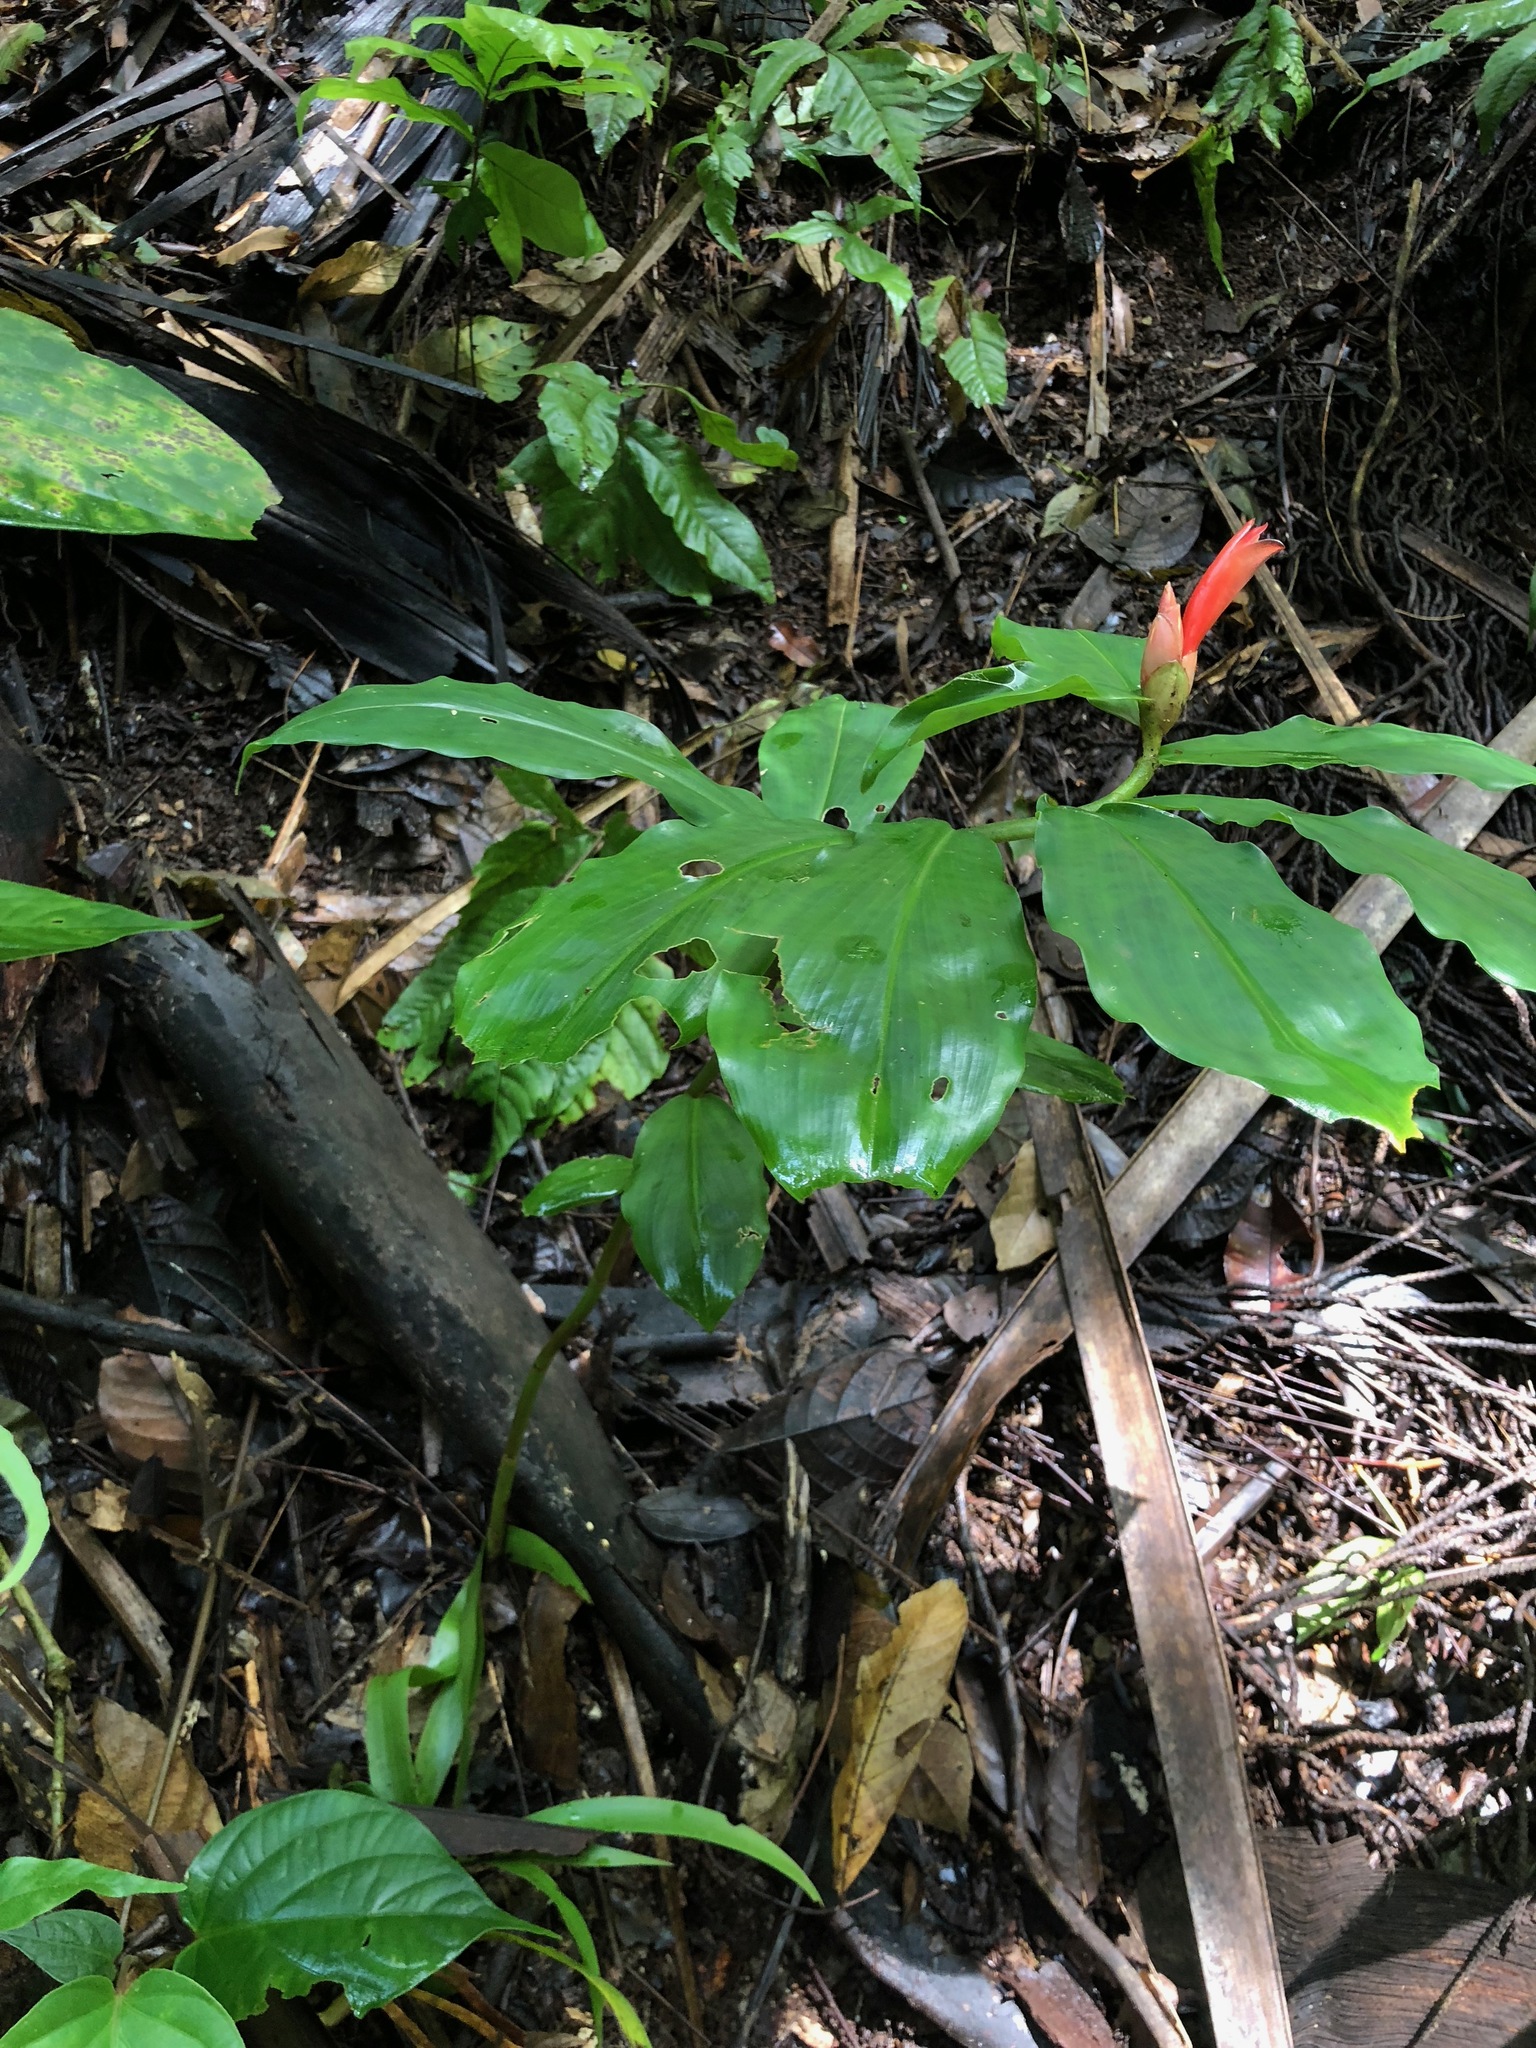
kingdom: Plantae
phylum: Tracheophyta
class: Liliopsida
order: Zingiberales
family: Costaceae
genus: Costus
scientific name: Costus pulverulentus
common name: Spiral ginger
